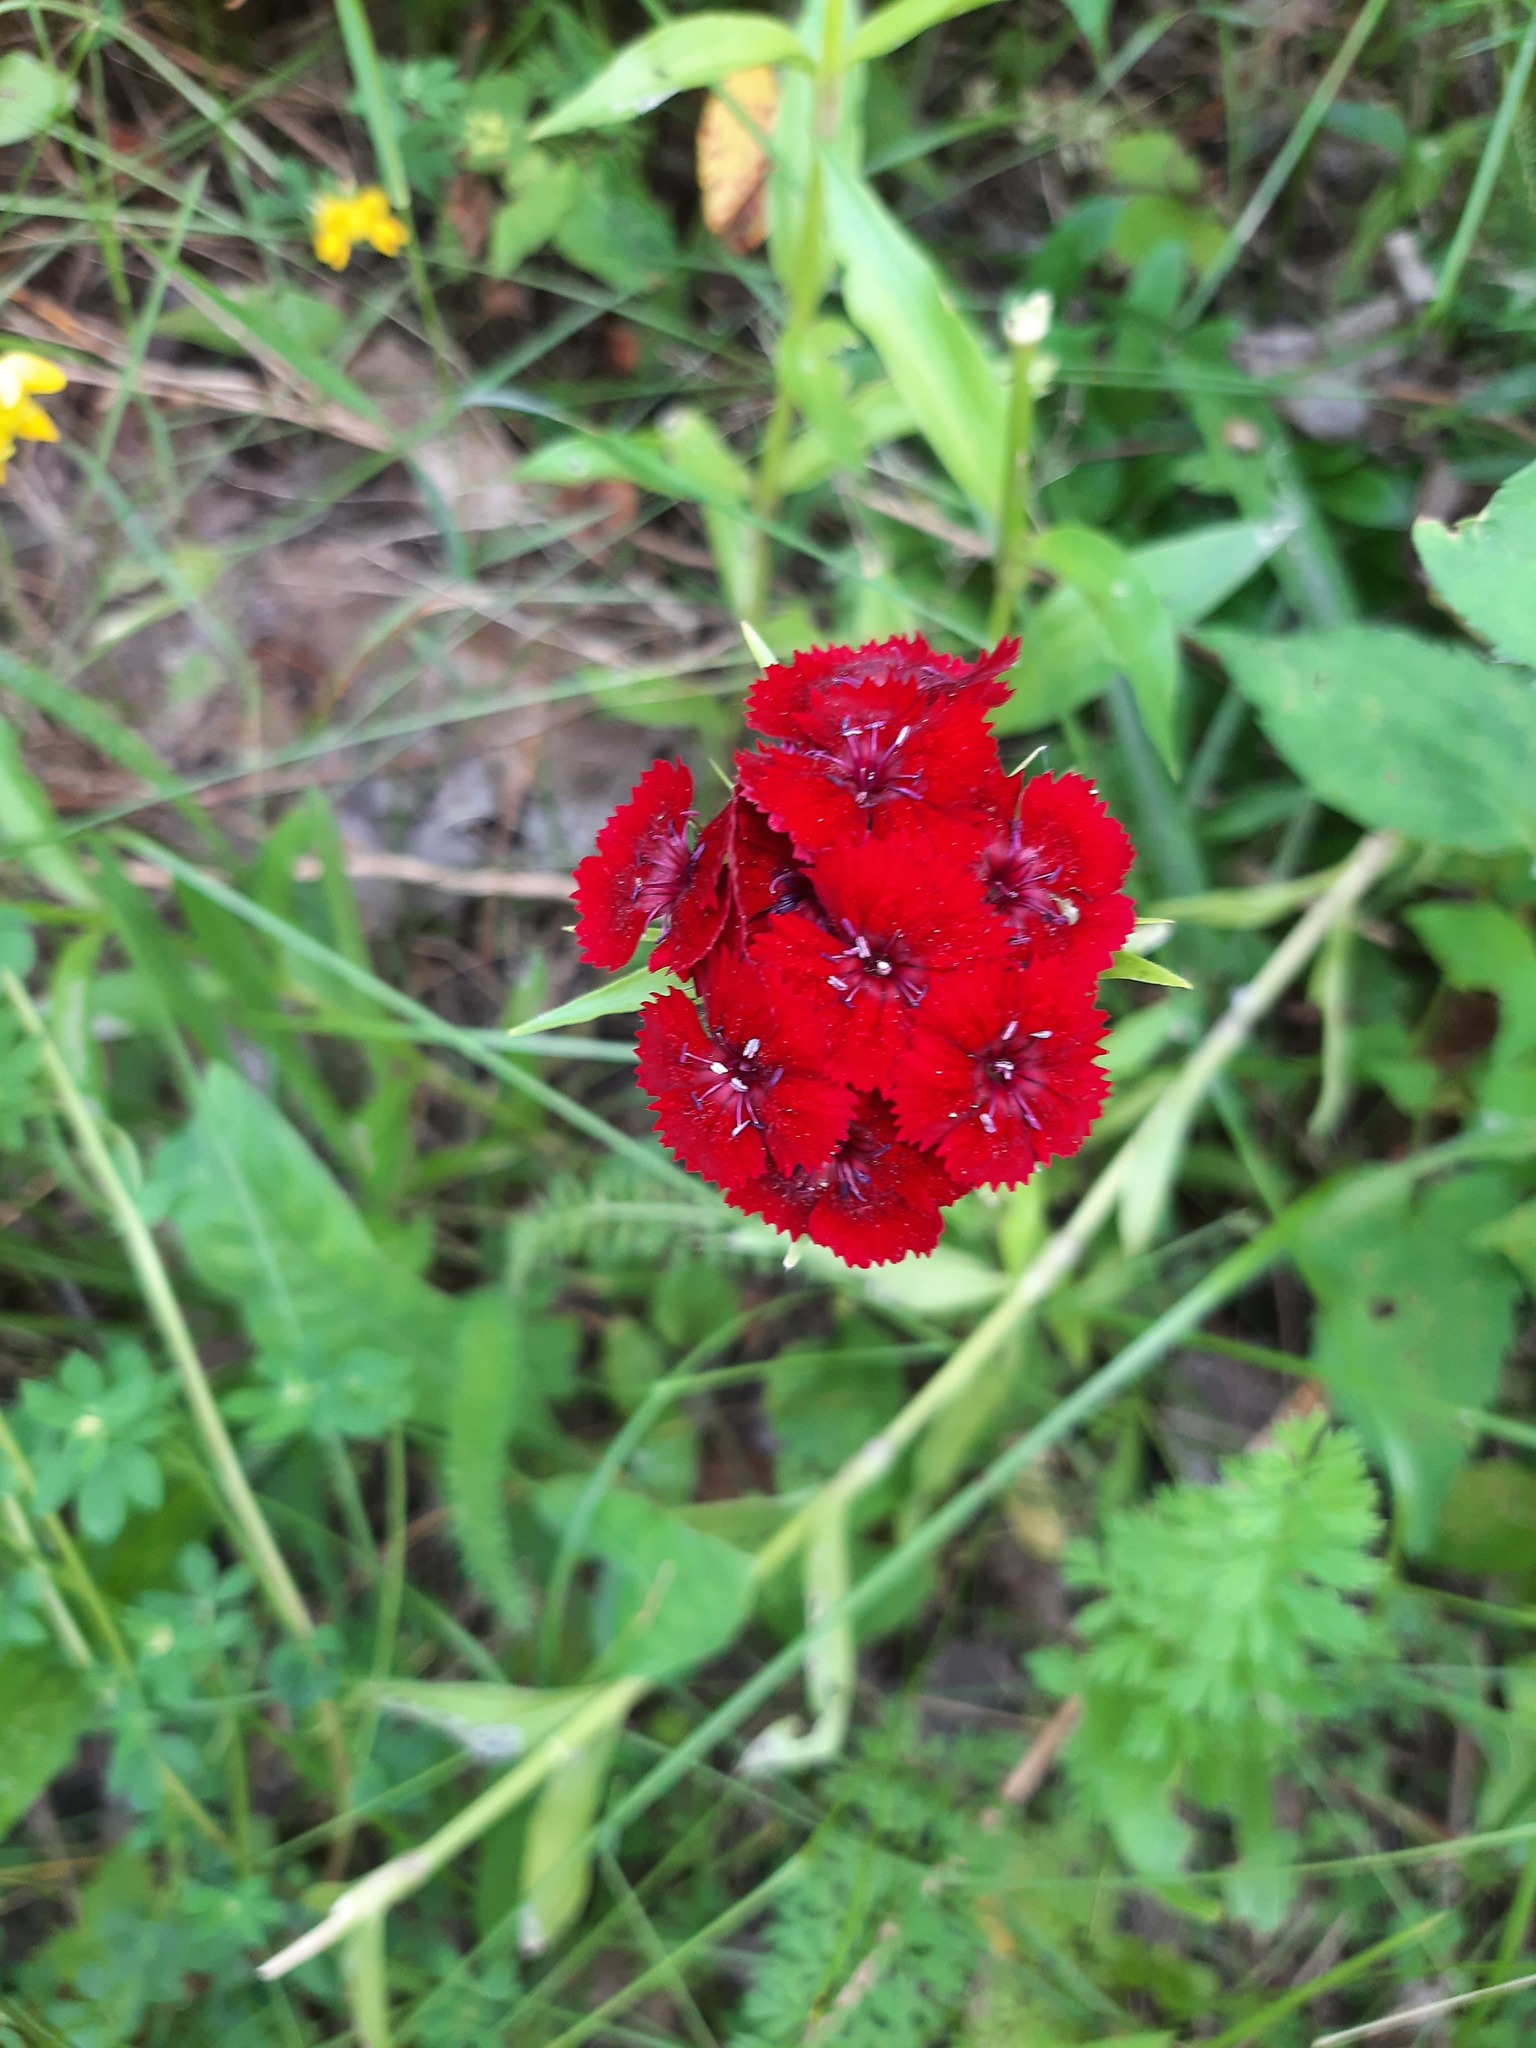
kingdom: Plantae
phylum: Tracheophyta
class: Magnoliopsida
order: Caryophyllales
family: Caryophyllaceae
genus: Dianthus
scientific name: Dianthus barbatus
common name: Sweet-william
